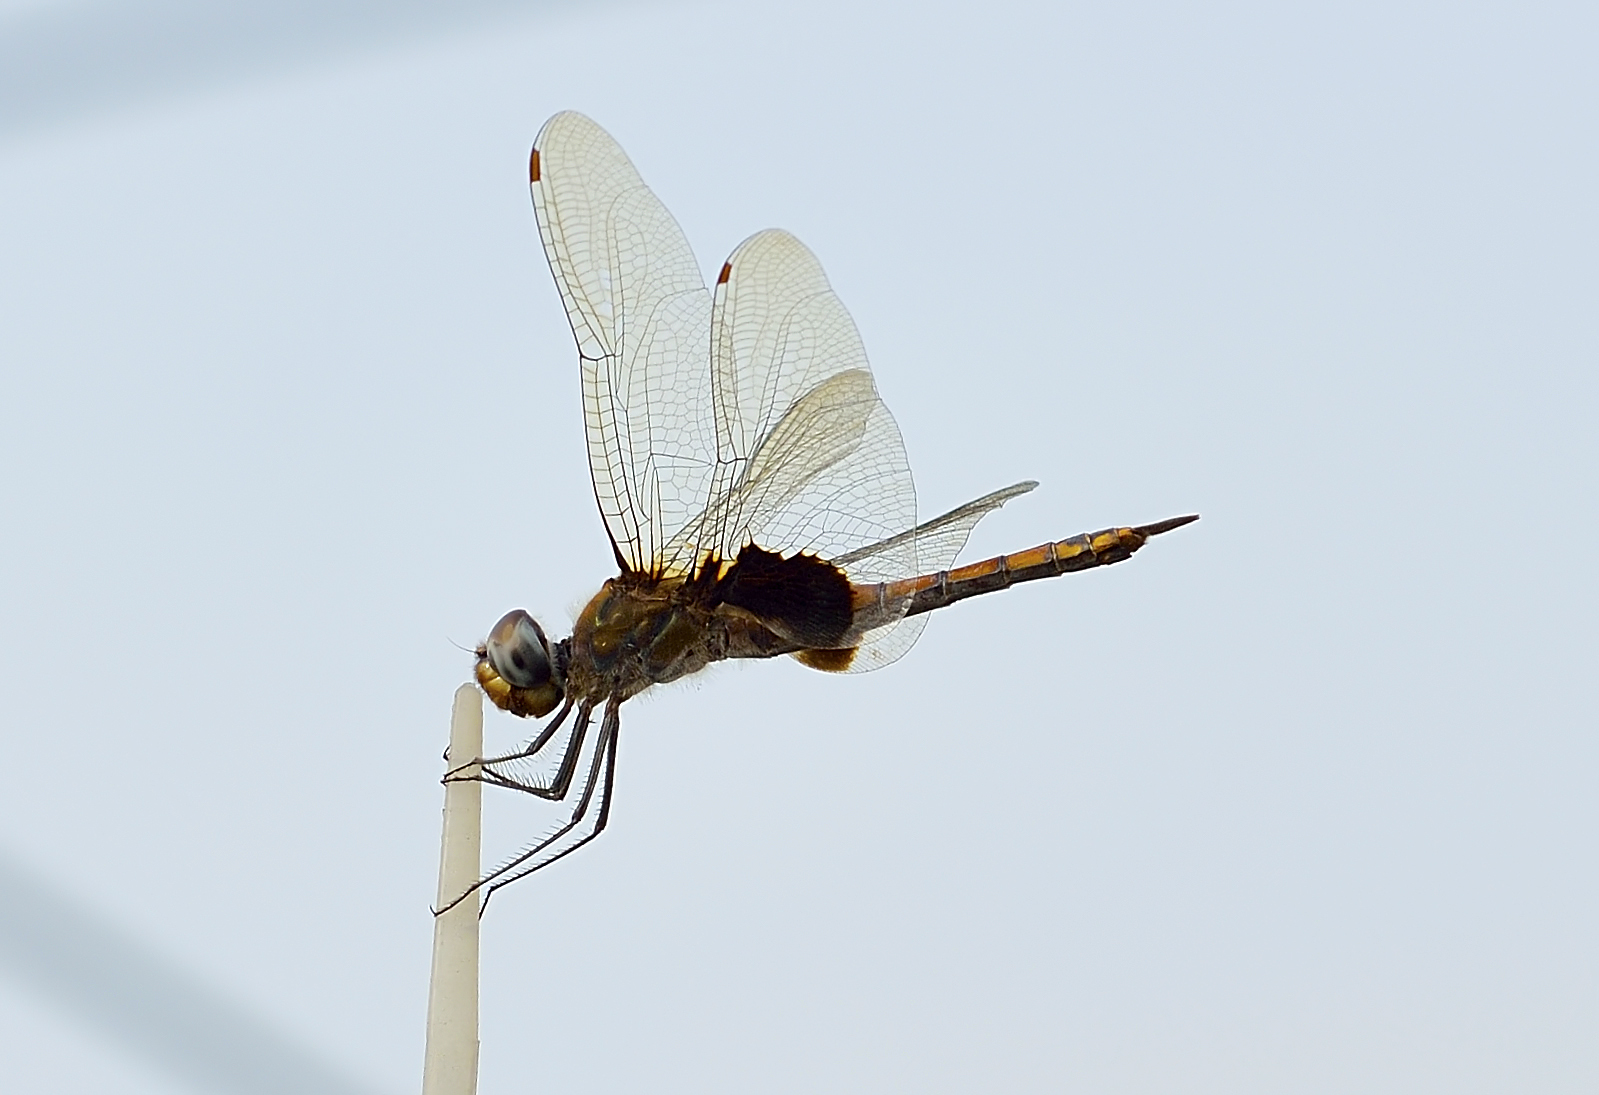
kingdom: Animalia
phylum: Arthropoda
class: Insecta
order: Odonata
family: Libellulidae
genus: Tramea
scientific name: Tramea limbata
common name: Ferruginous glider
